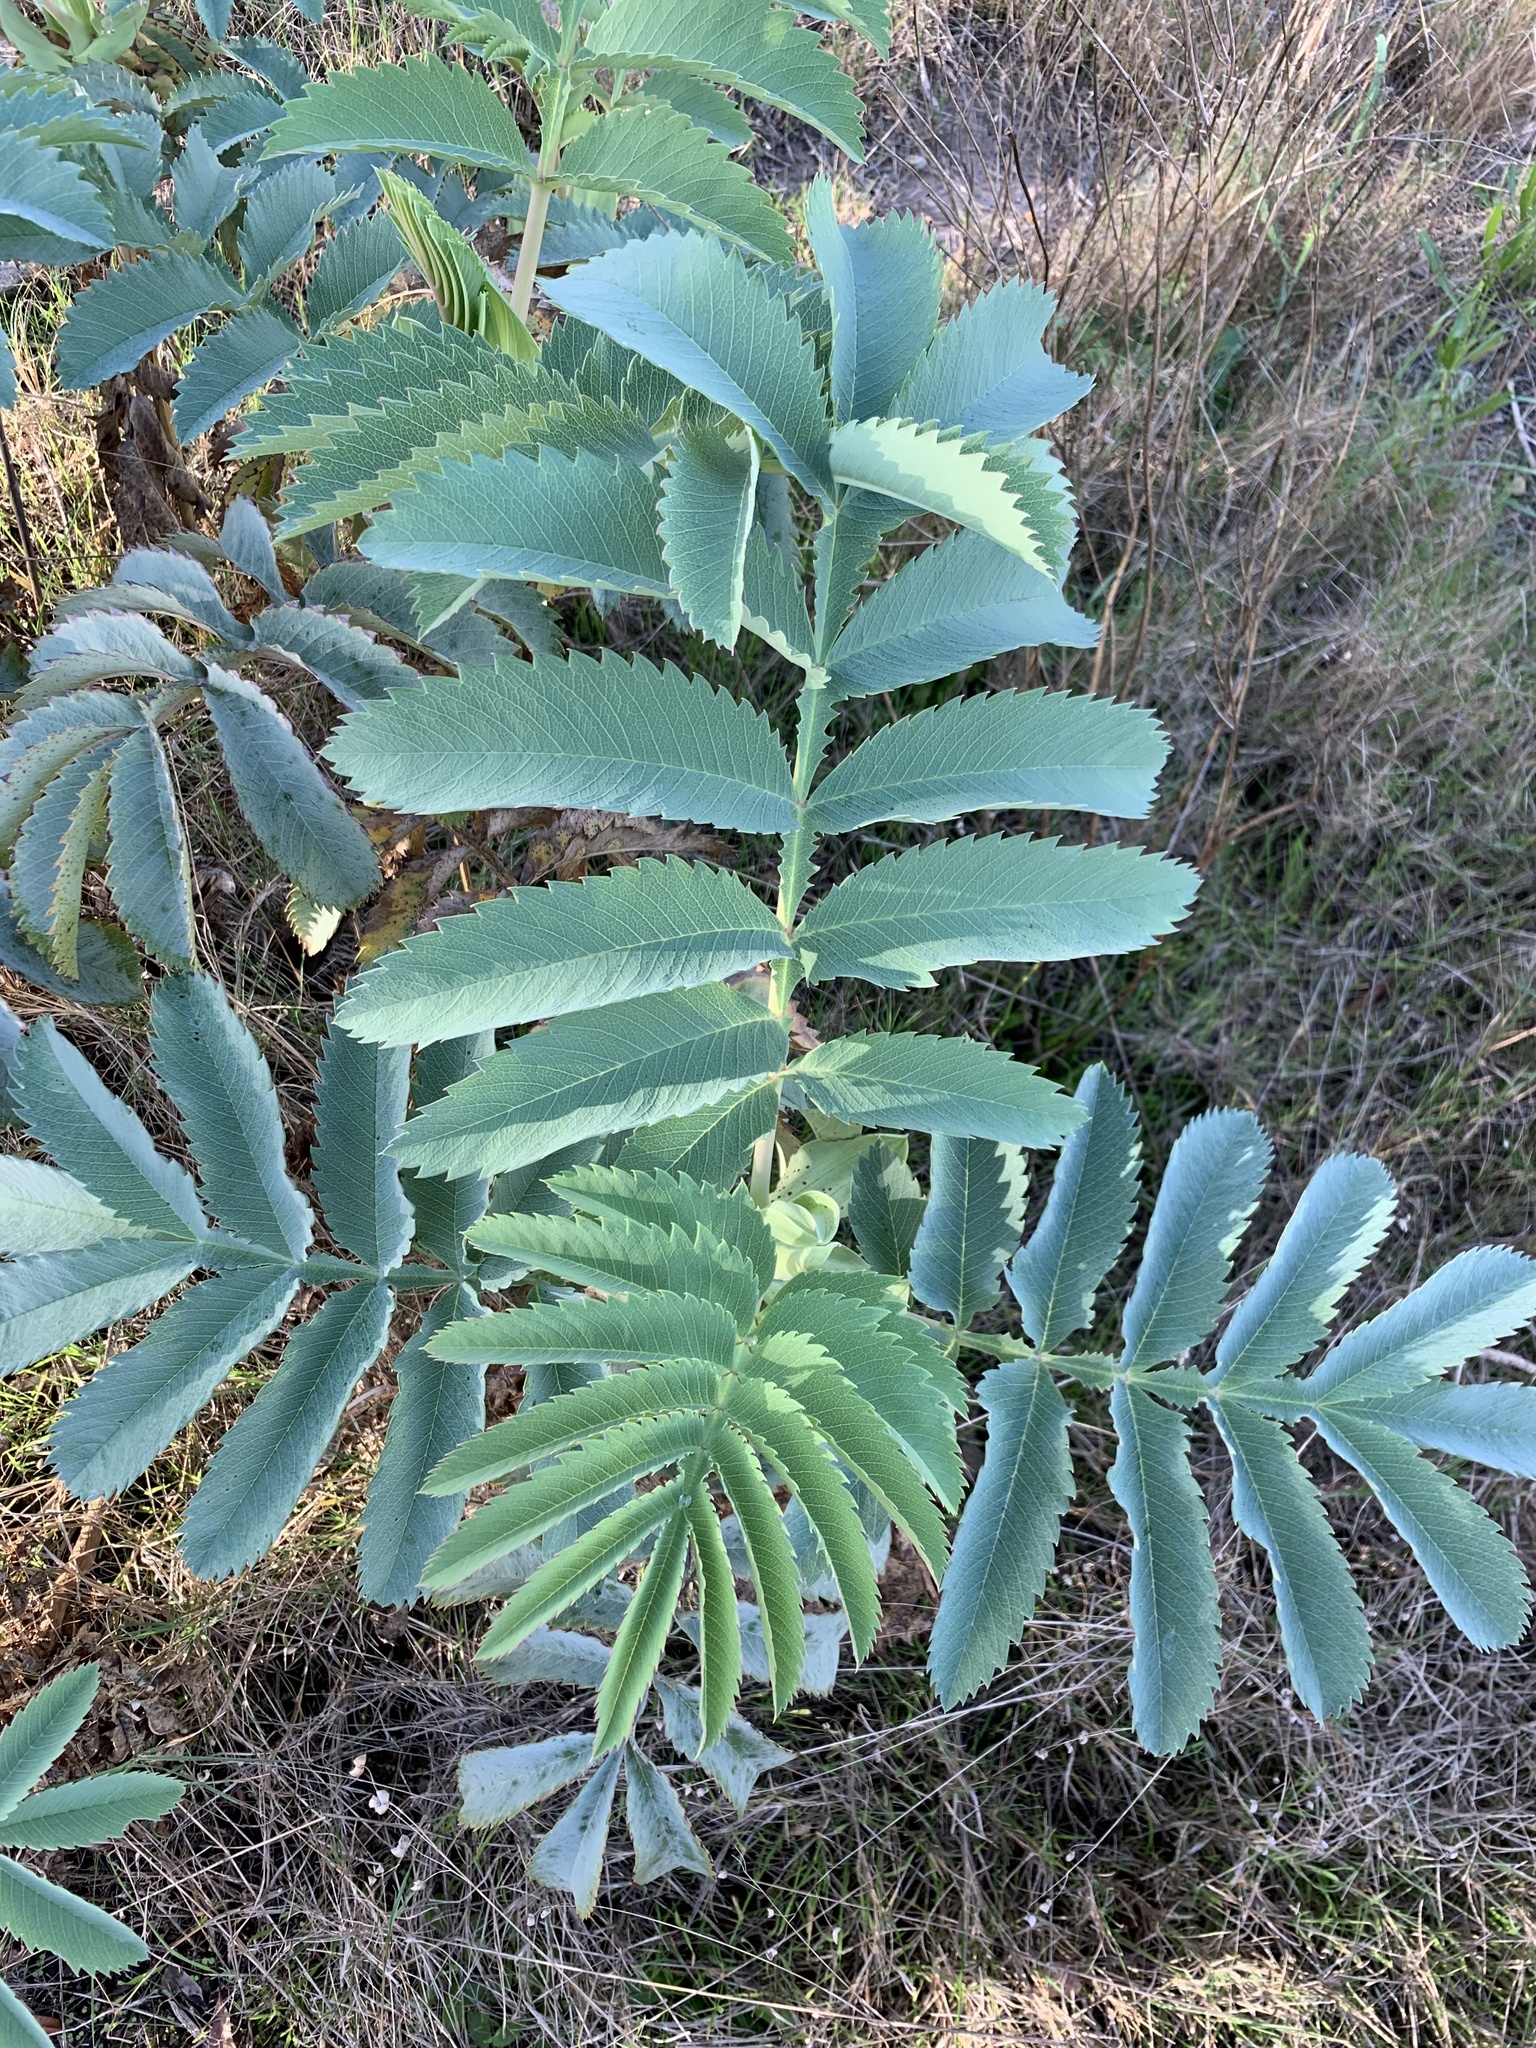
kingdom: Plantae
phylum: Tracheophyta
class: Magnoliopsida
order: Geraniales
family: Melianthaceae
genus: Melianthus
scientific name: Melianthus major
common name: Honey-flower
